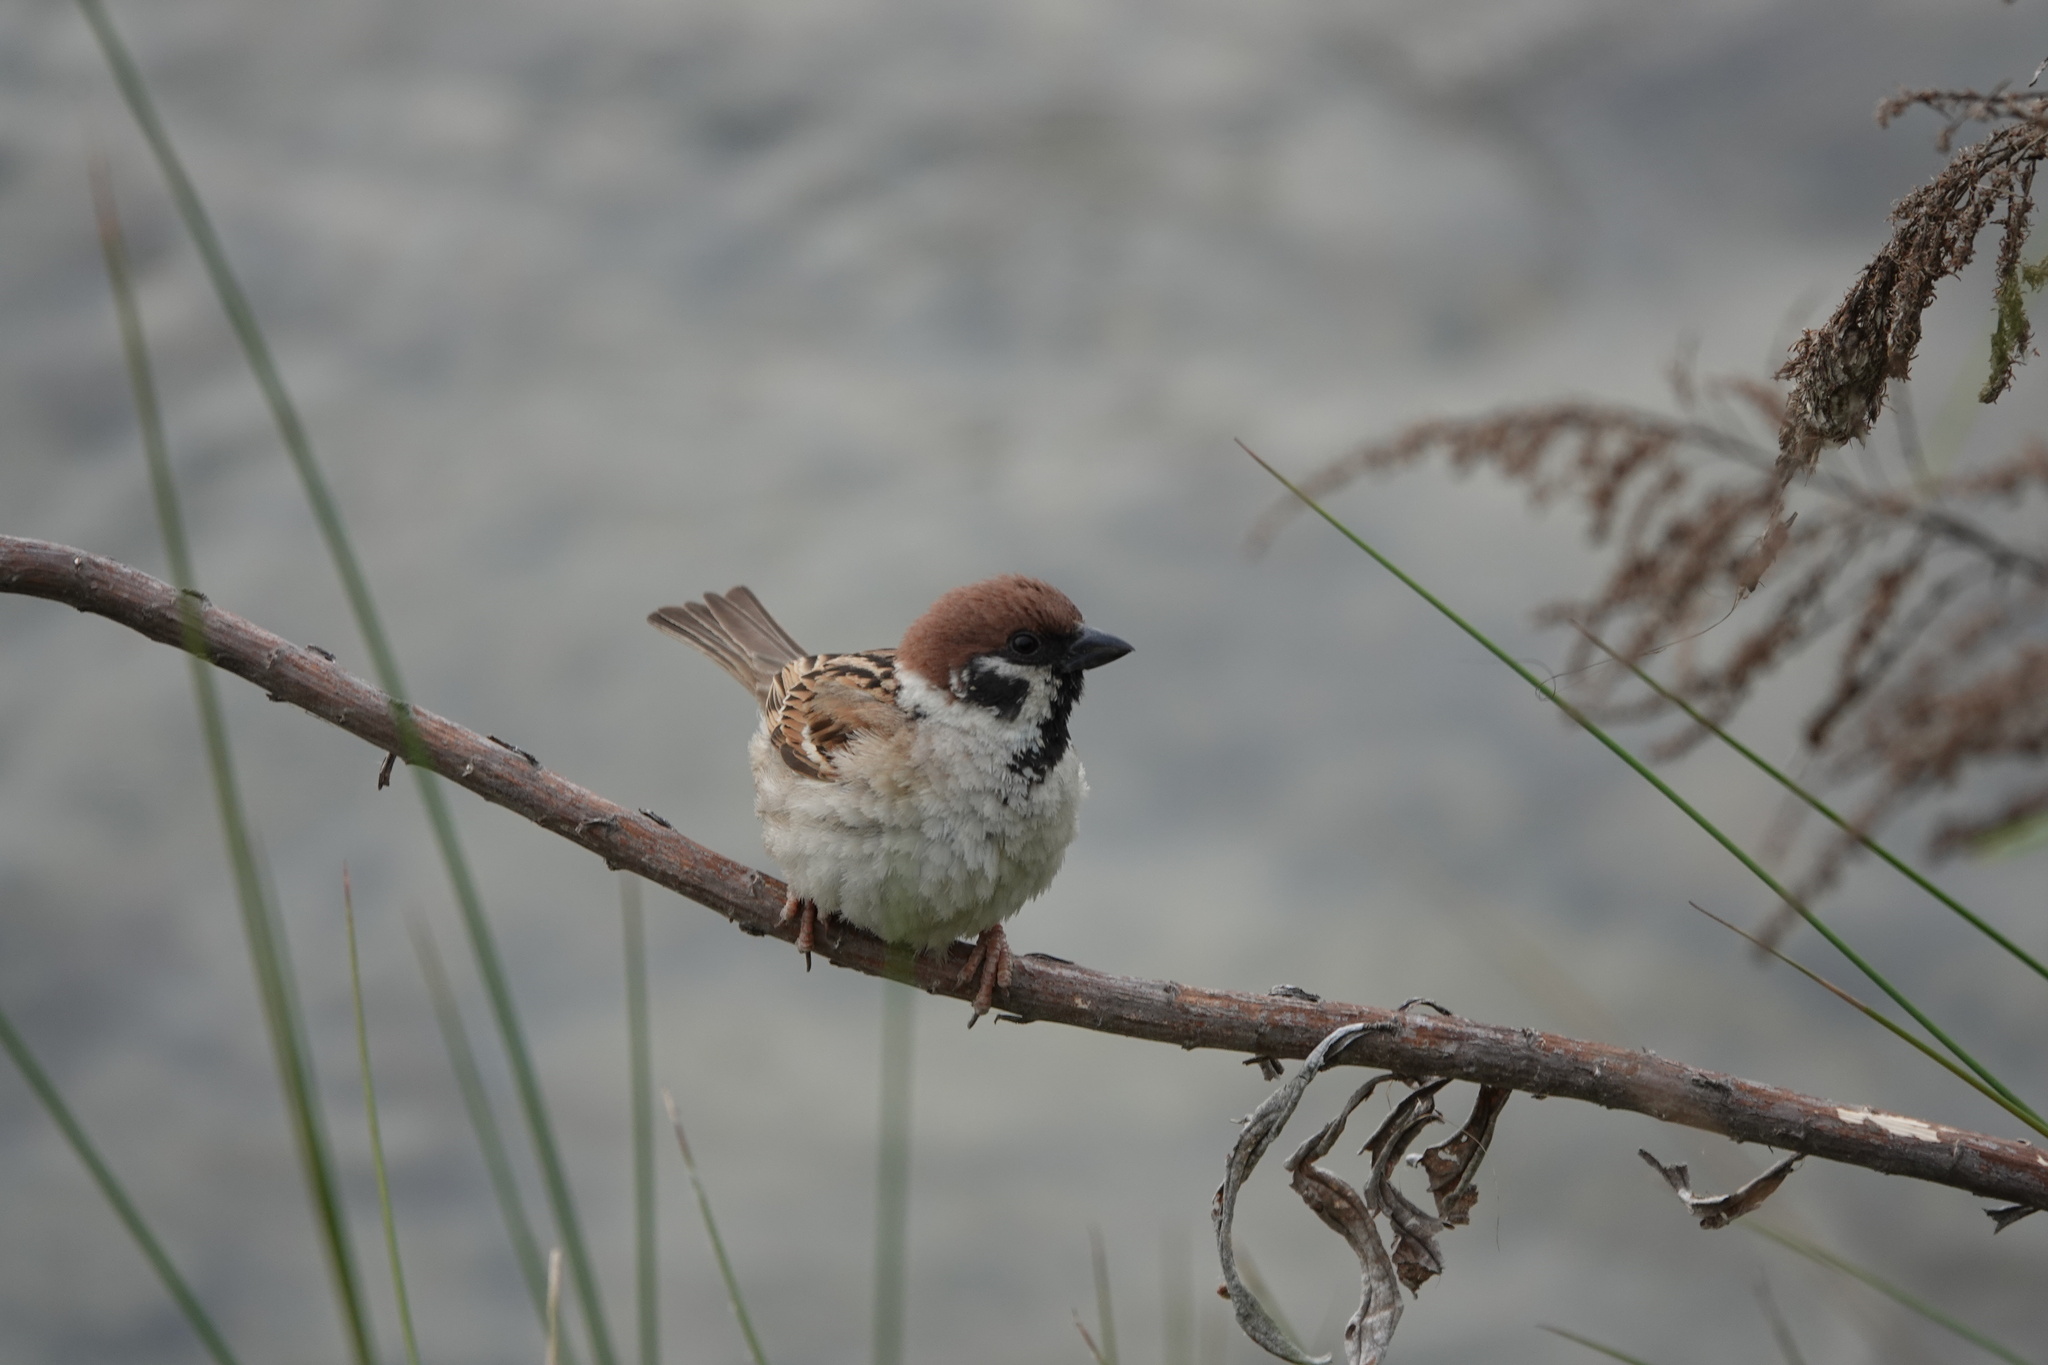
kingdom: Animalia
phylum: Chordata
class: Aves
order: Passeriformes
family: Passeridae
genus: Passer
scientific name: Passer montanus
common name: Eurasian tree sparrow
